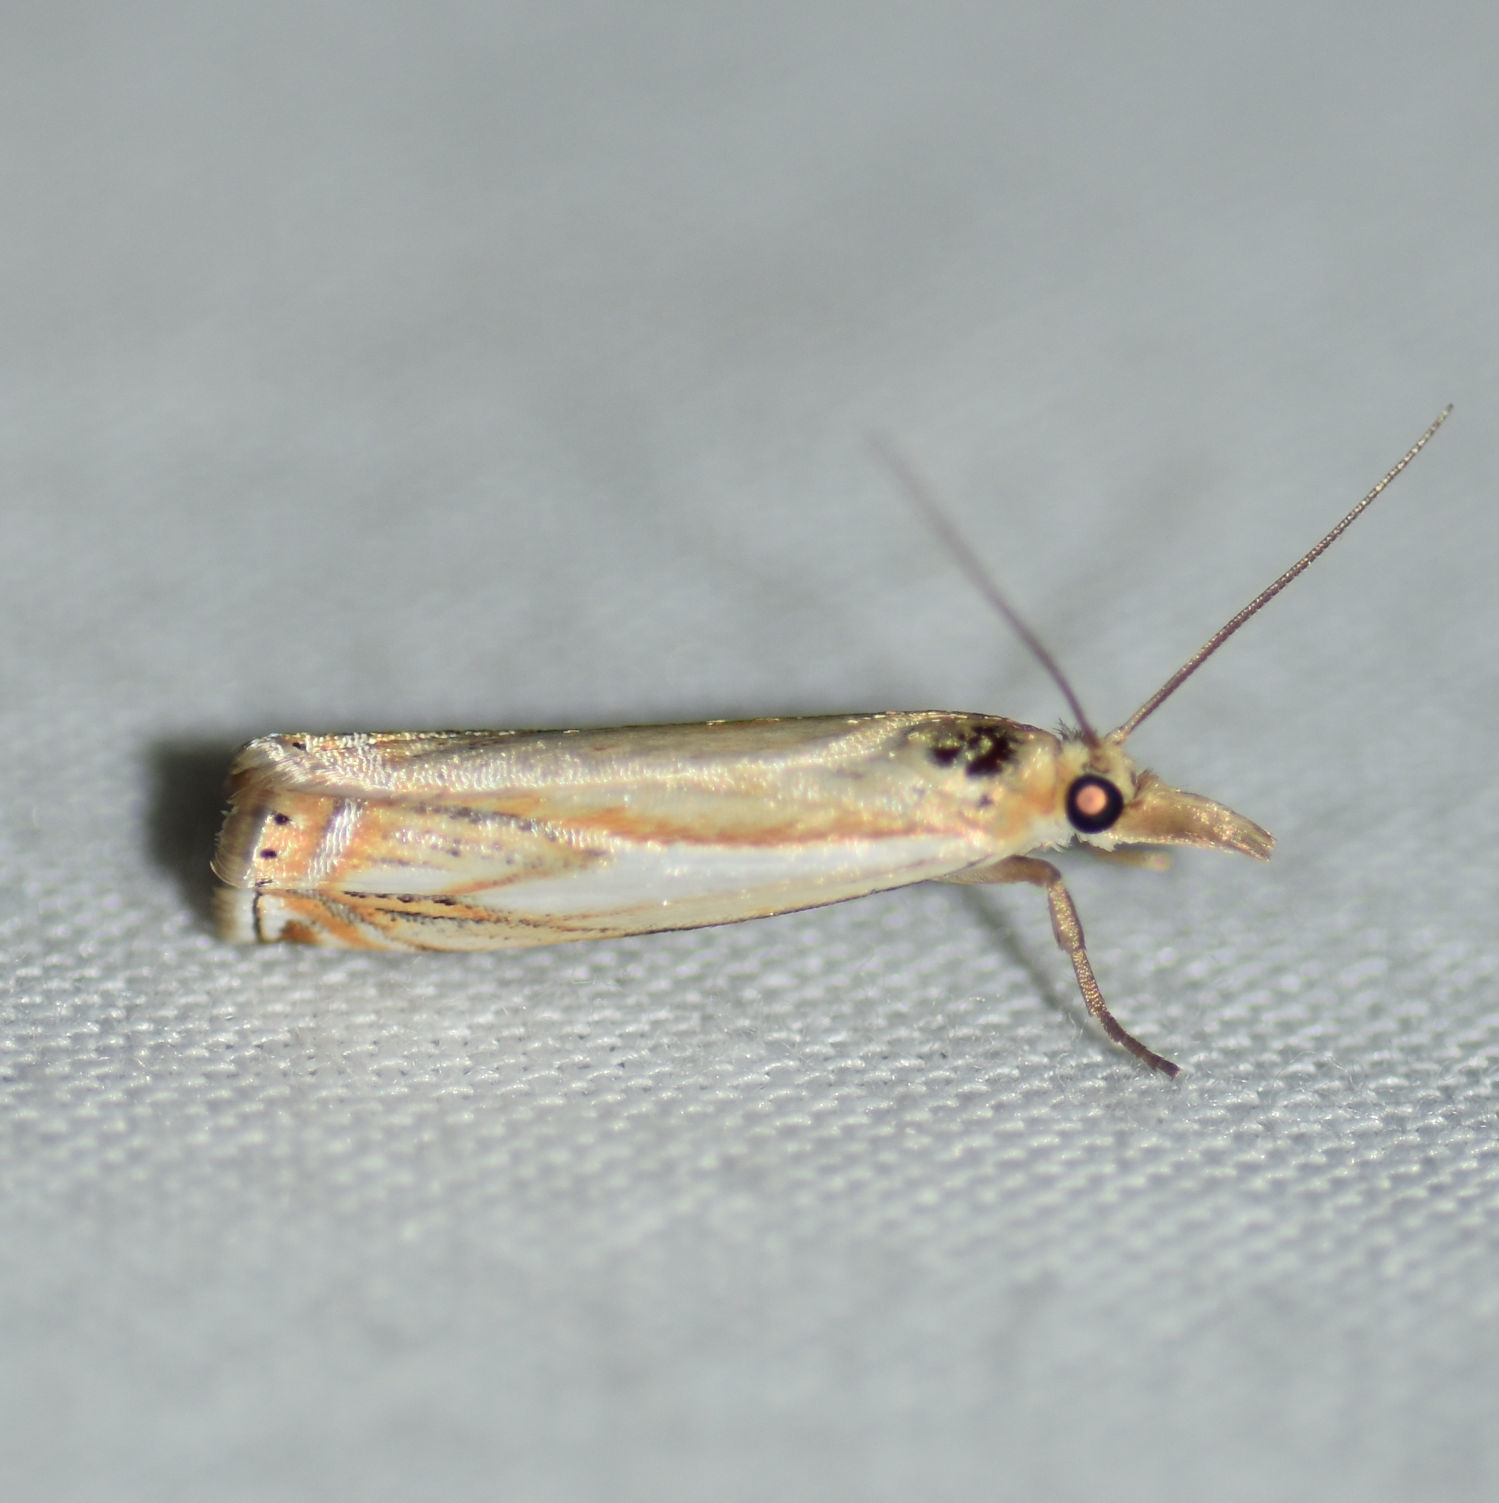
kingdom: Animalia
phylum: Arthropoda
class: Insecta
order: Lepidoptera
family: Crambidae
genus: Crambus
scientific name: Crambus agitatellus
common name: Double-banded grass-veneer
